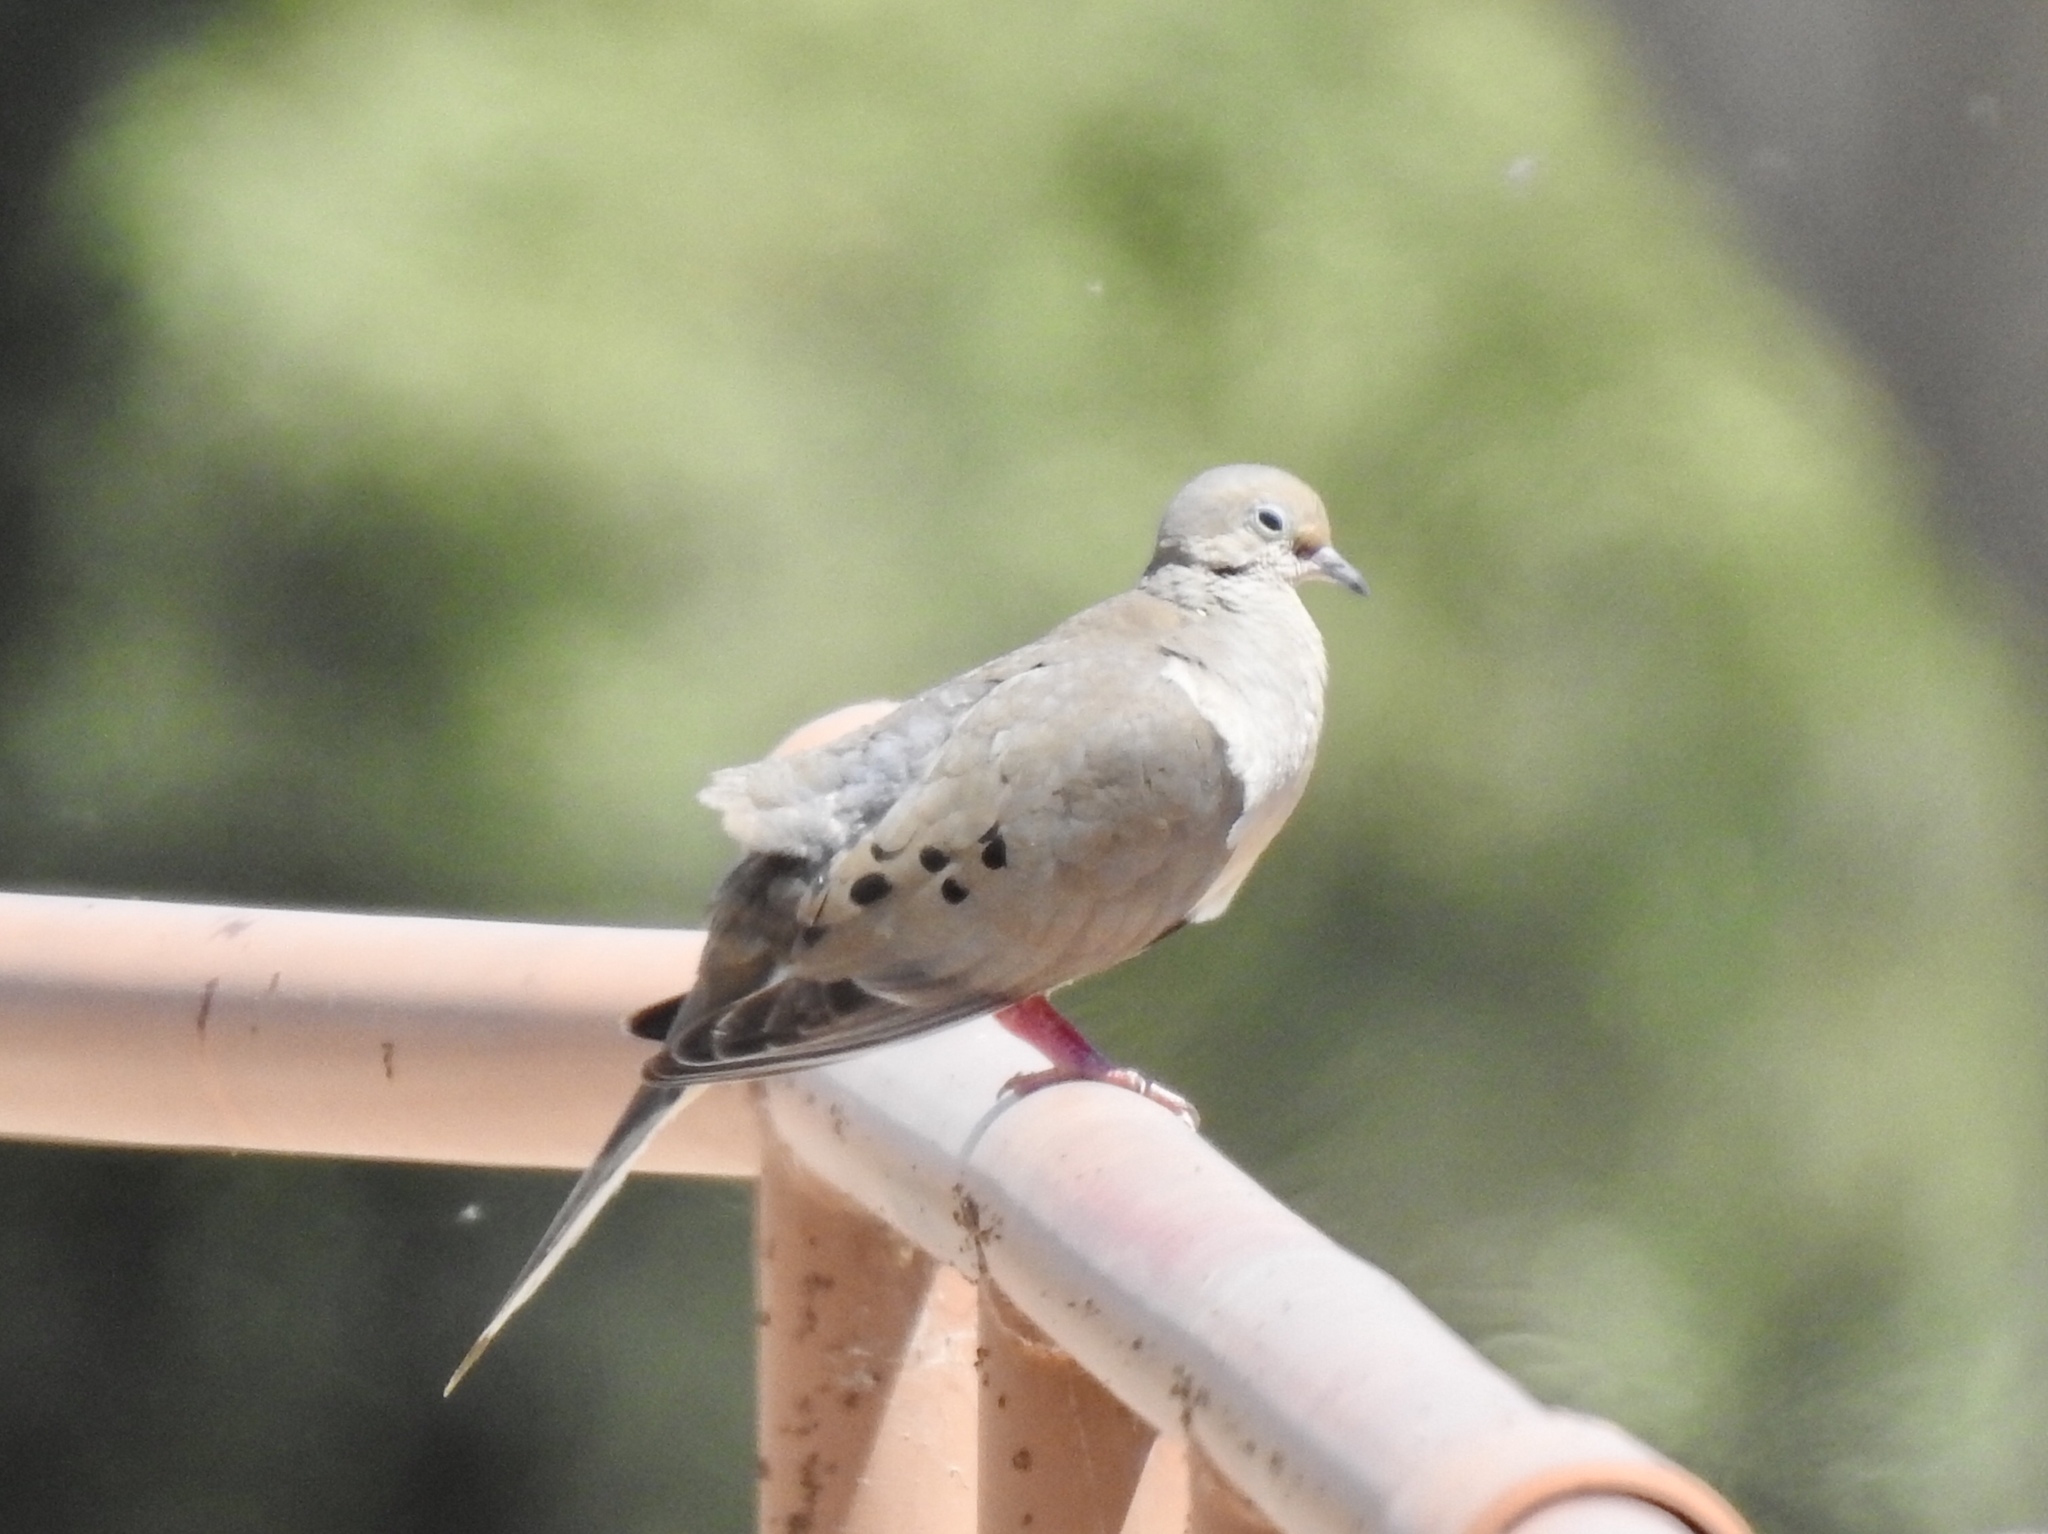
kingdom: Animalia
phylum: Chordata
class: Aves
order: Columbiformes
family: Columbidae
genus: Zenaida
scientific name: Zenaida macroura
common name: Mourning dove
